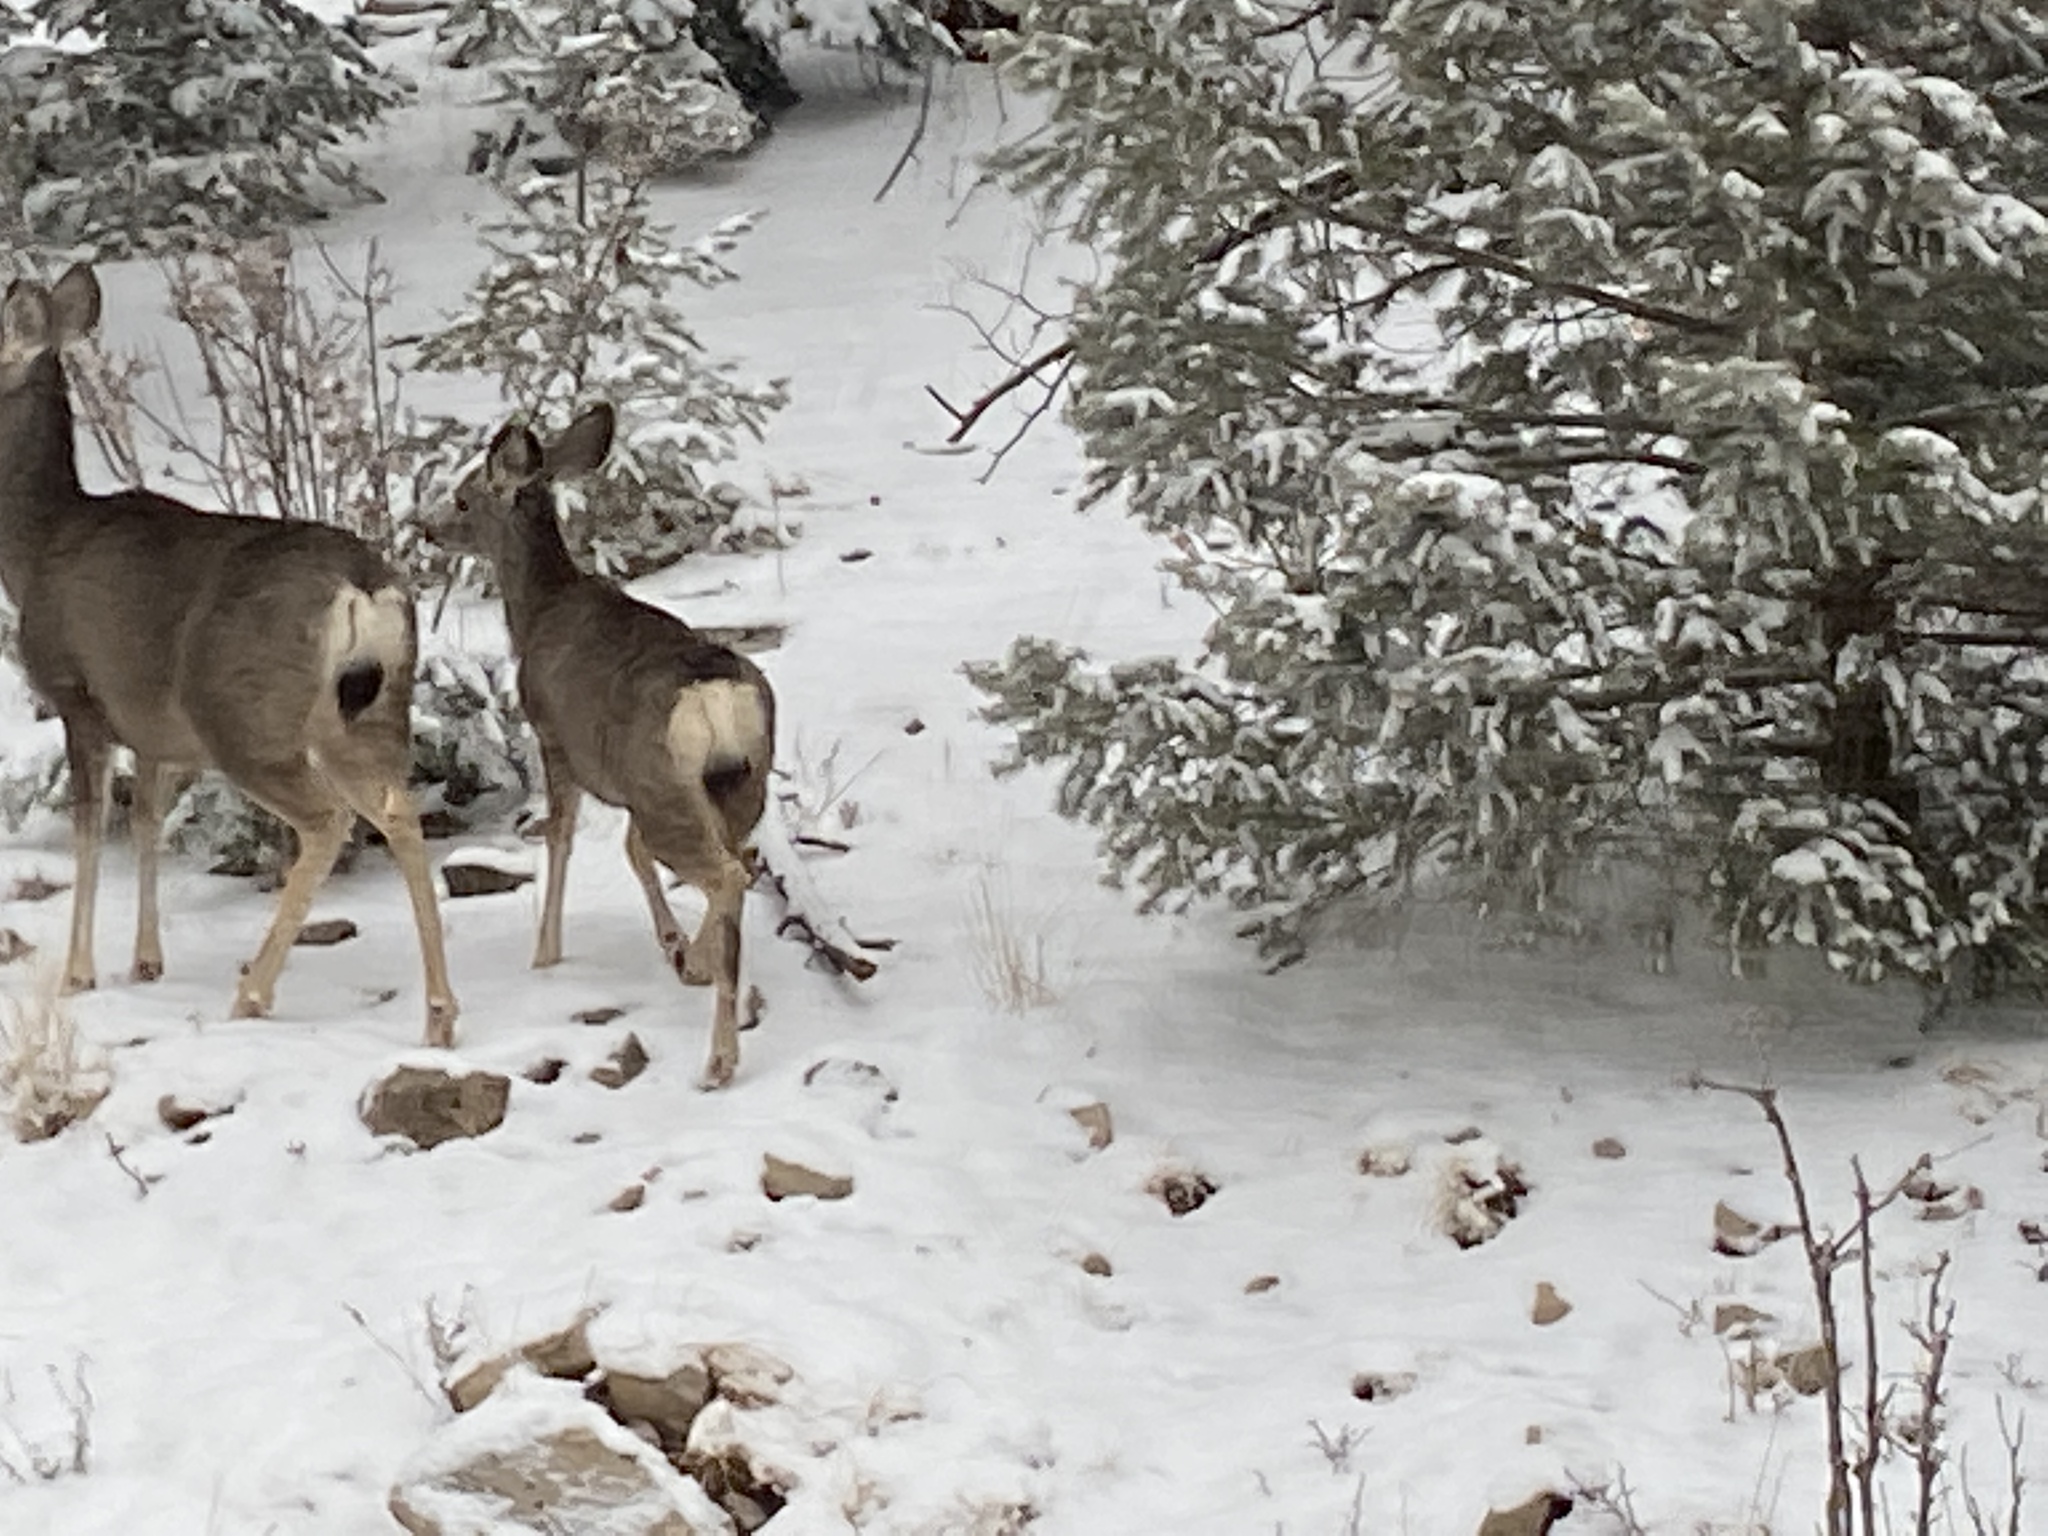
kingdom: Animalia
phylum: Chordata
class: Mammalia
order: Artiodactyla
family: Cervidae
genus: Odocoileus
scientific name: Odocoileus hemionus
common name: Mule deer
